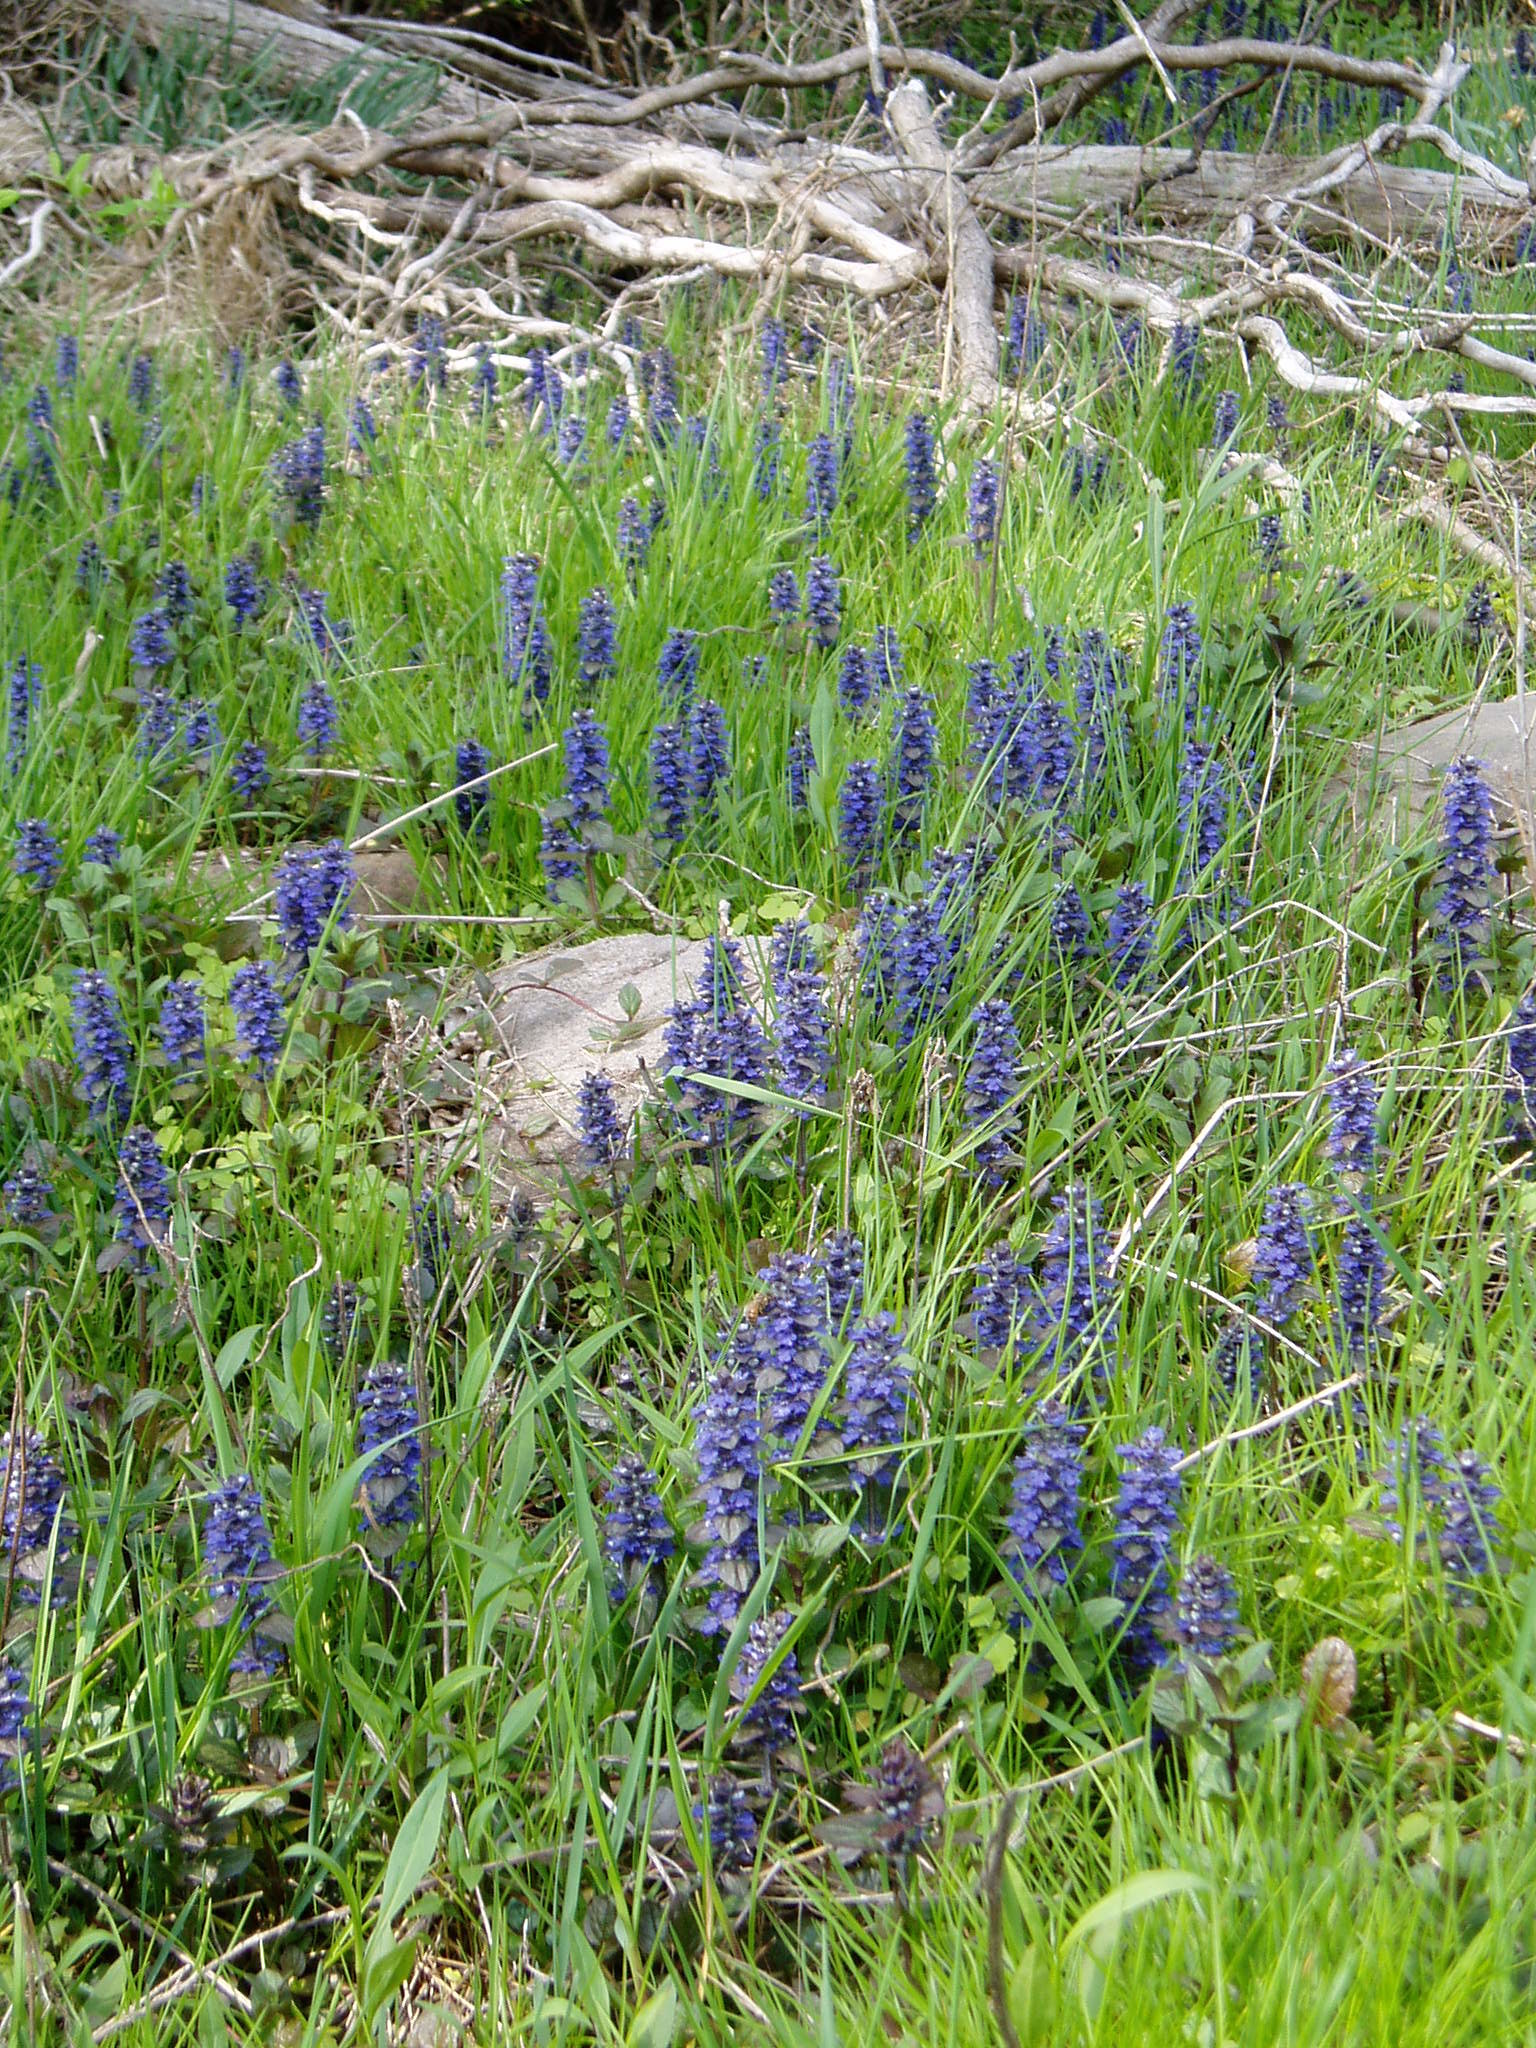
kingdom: Plantae
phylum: Tracheophyta
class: Magnoliopsida
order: Lamiales
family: Lamiaceae
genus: Ajuga
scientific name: Ajuga reptans
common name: Bugle
